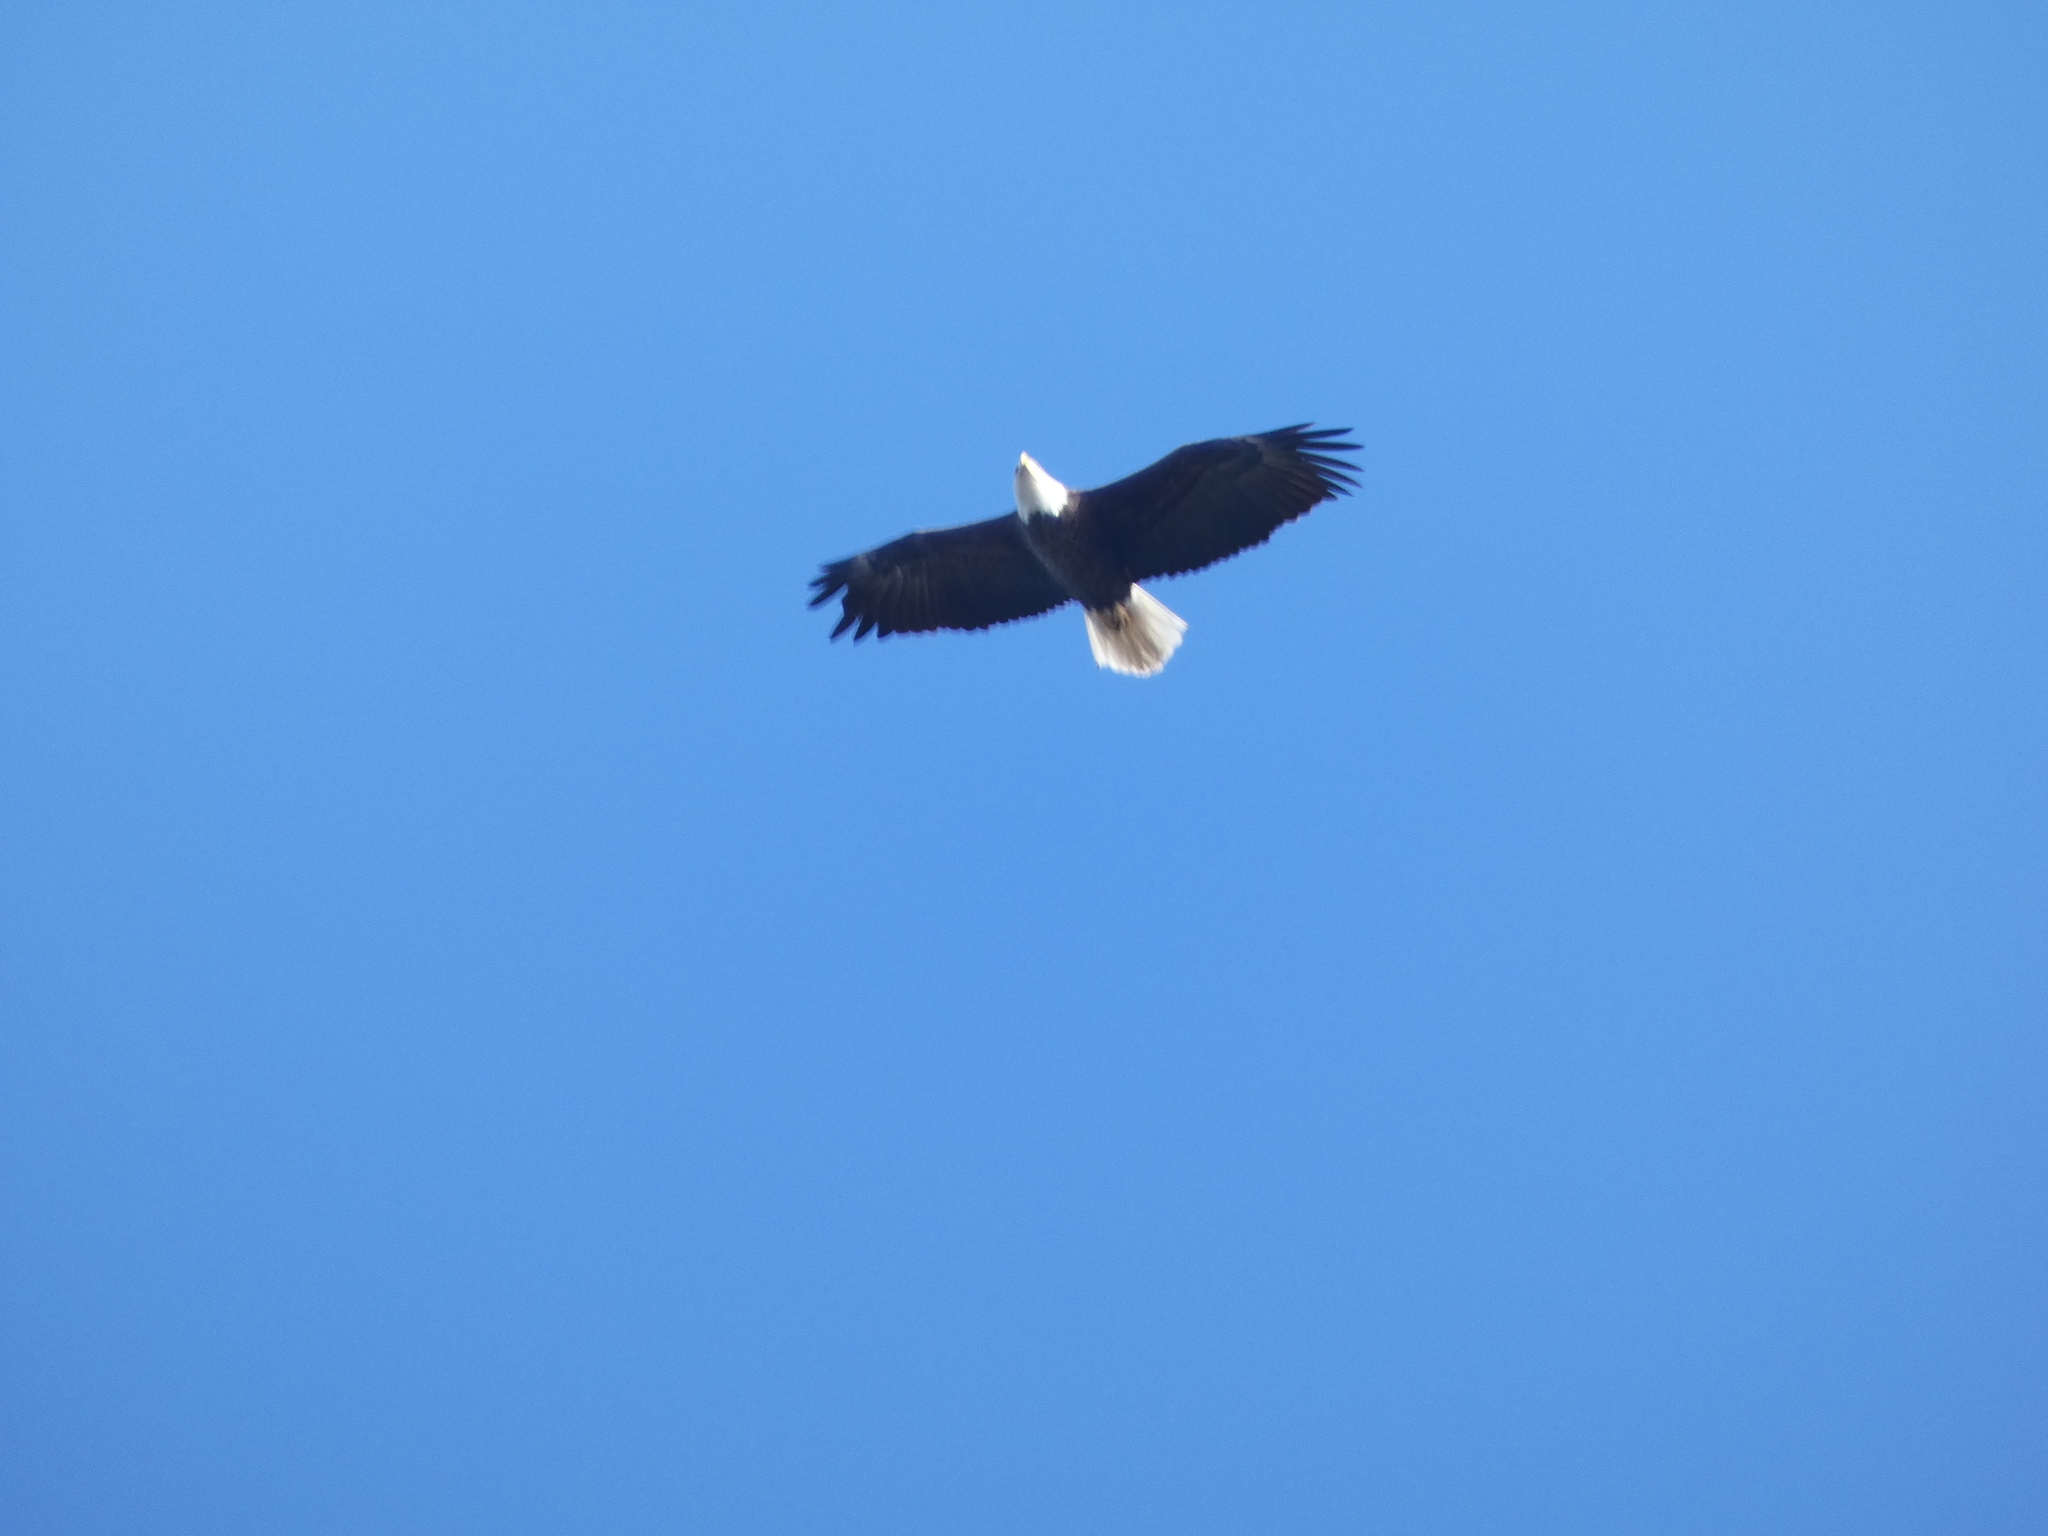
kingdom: Animalia
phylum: Chordata
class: Aves
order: Accipitriformes
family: Accipitridae
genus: Haliaeetus
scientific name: Haliaeetus leucocephalus
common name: Bald eagle
